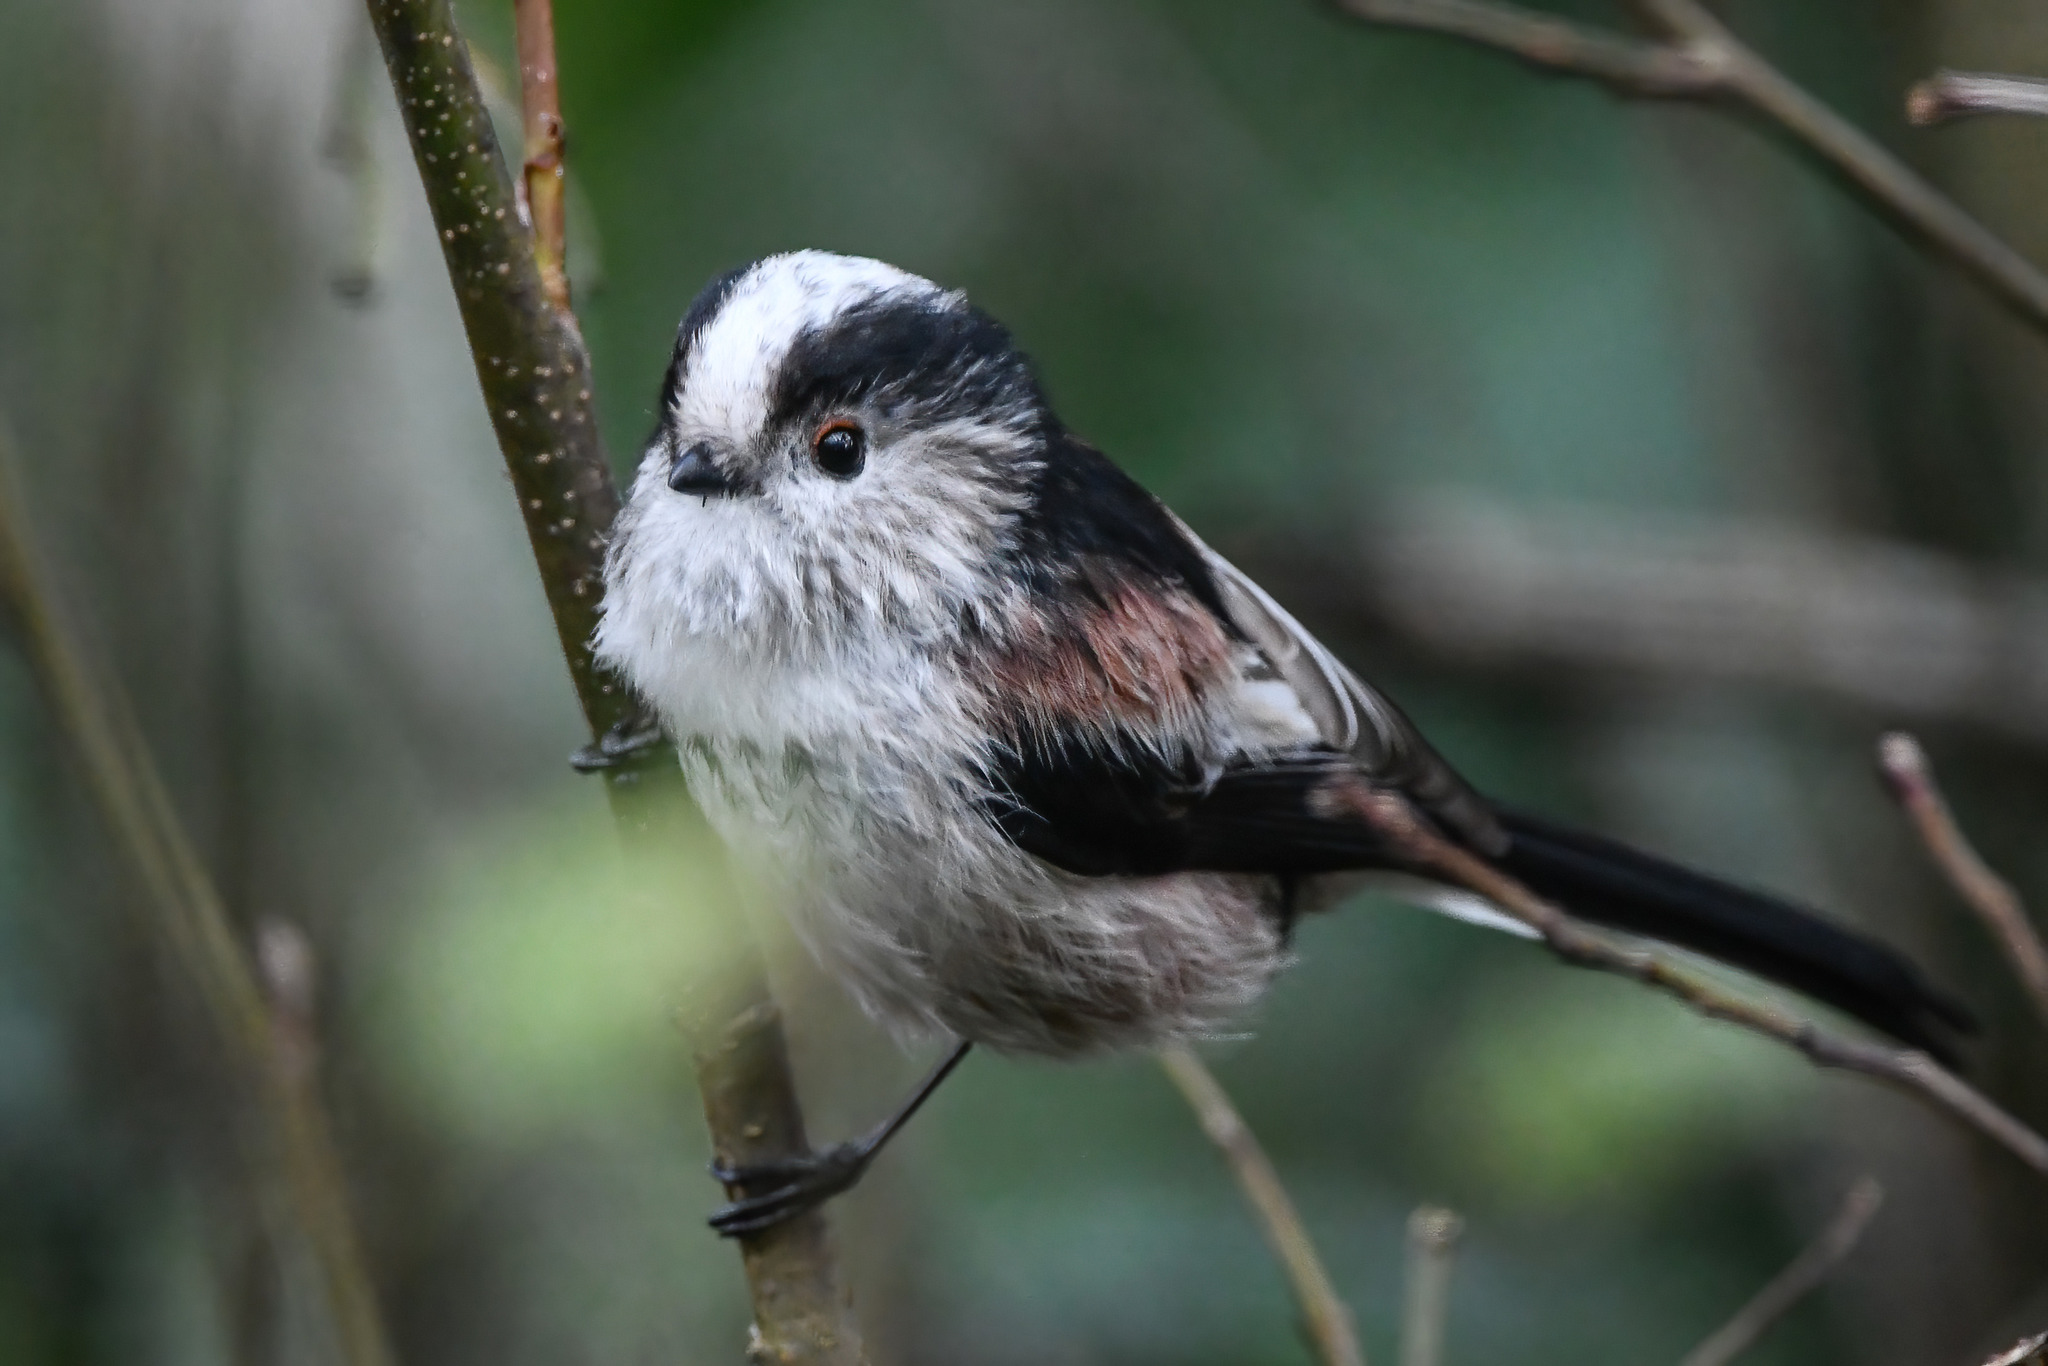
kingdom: Animalia
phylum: Chordata
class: Aves
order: Passeriformes
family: Aegithalidae
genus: Aegithalos
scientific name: Aegithalos caudatus
